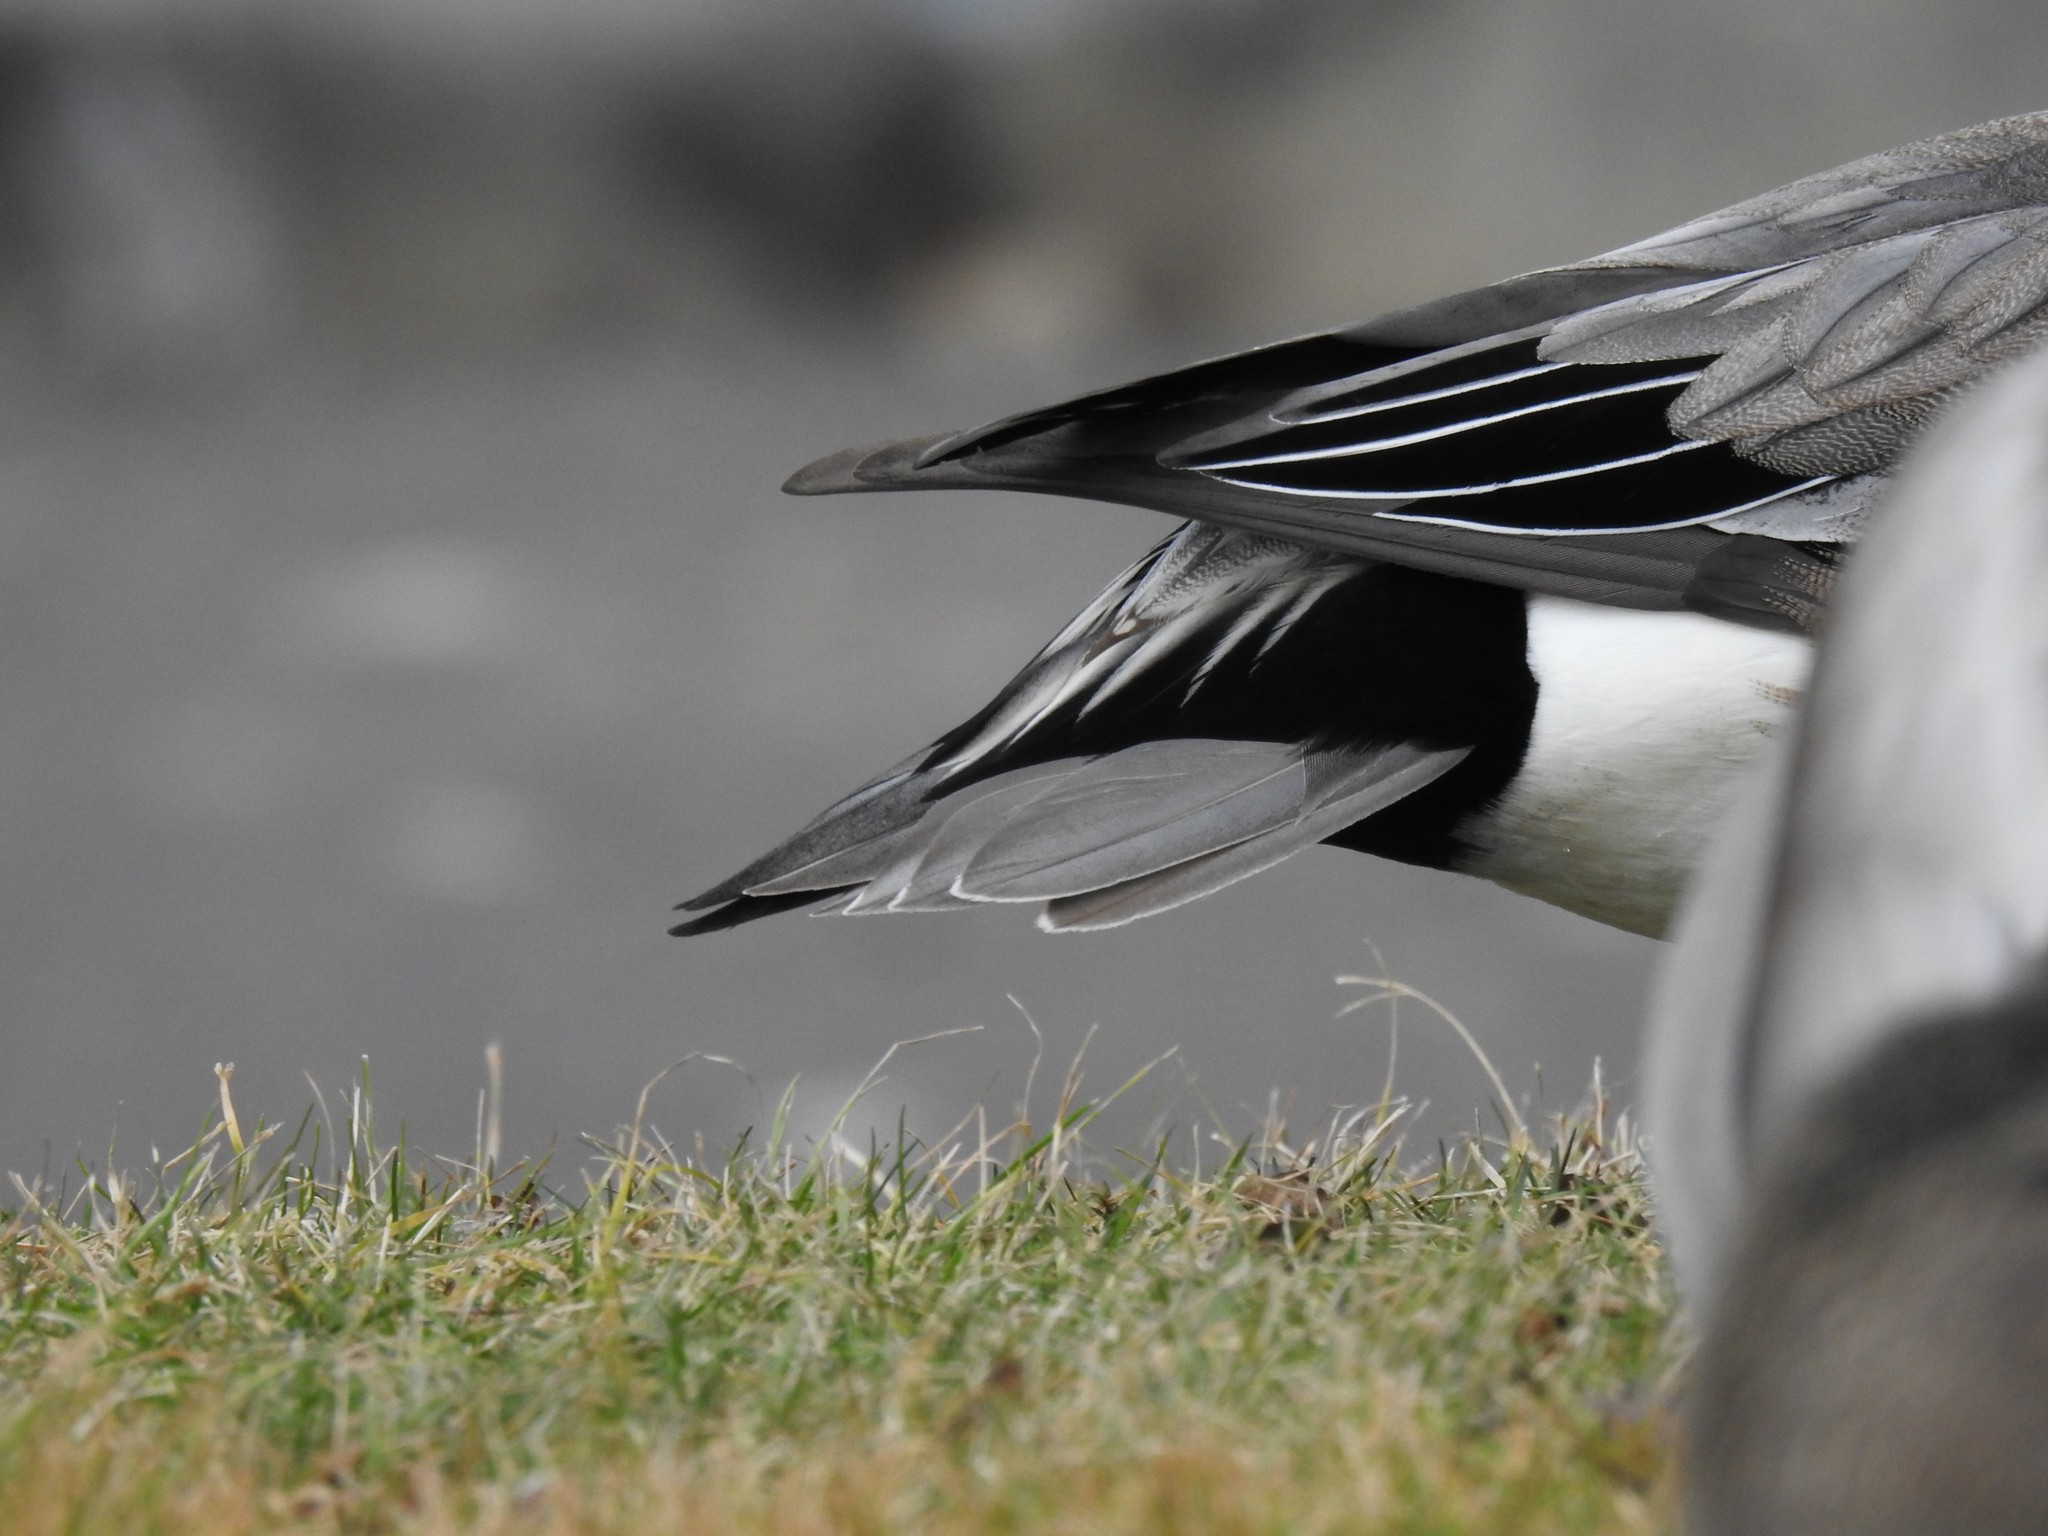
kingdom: Animalia
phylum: Chordata
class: Aves
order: Anseriformes
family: Anatidae
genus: Mareca
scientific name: Mareca americana
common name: American wigeon
